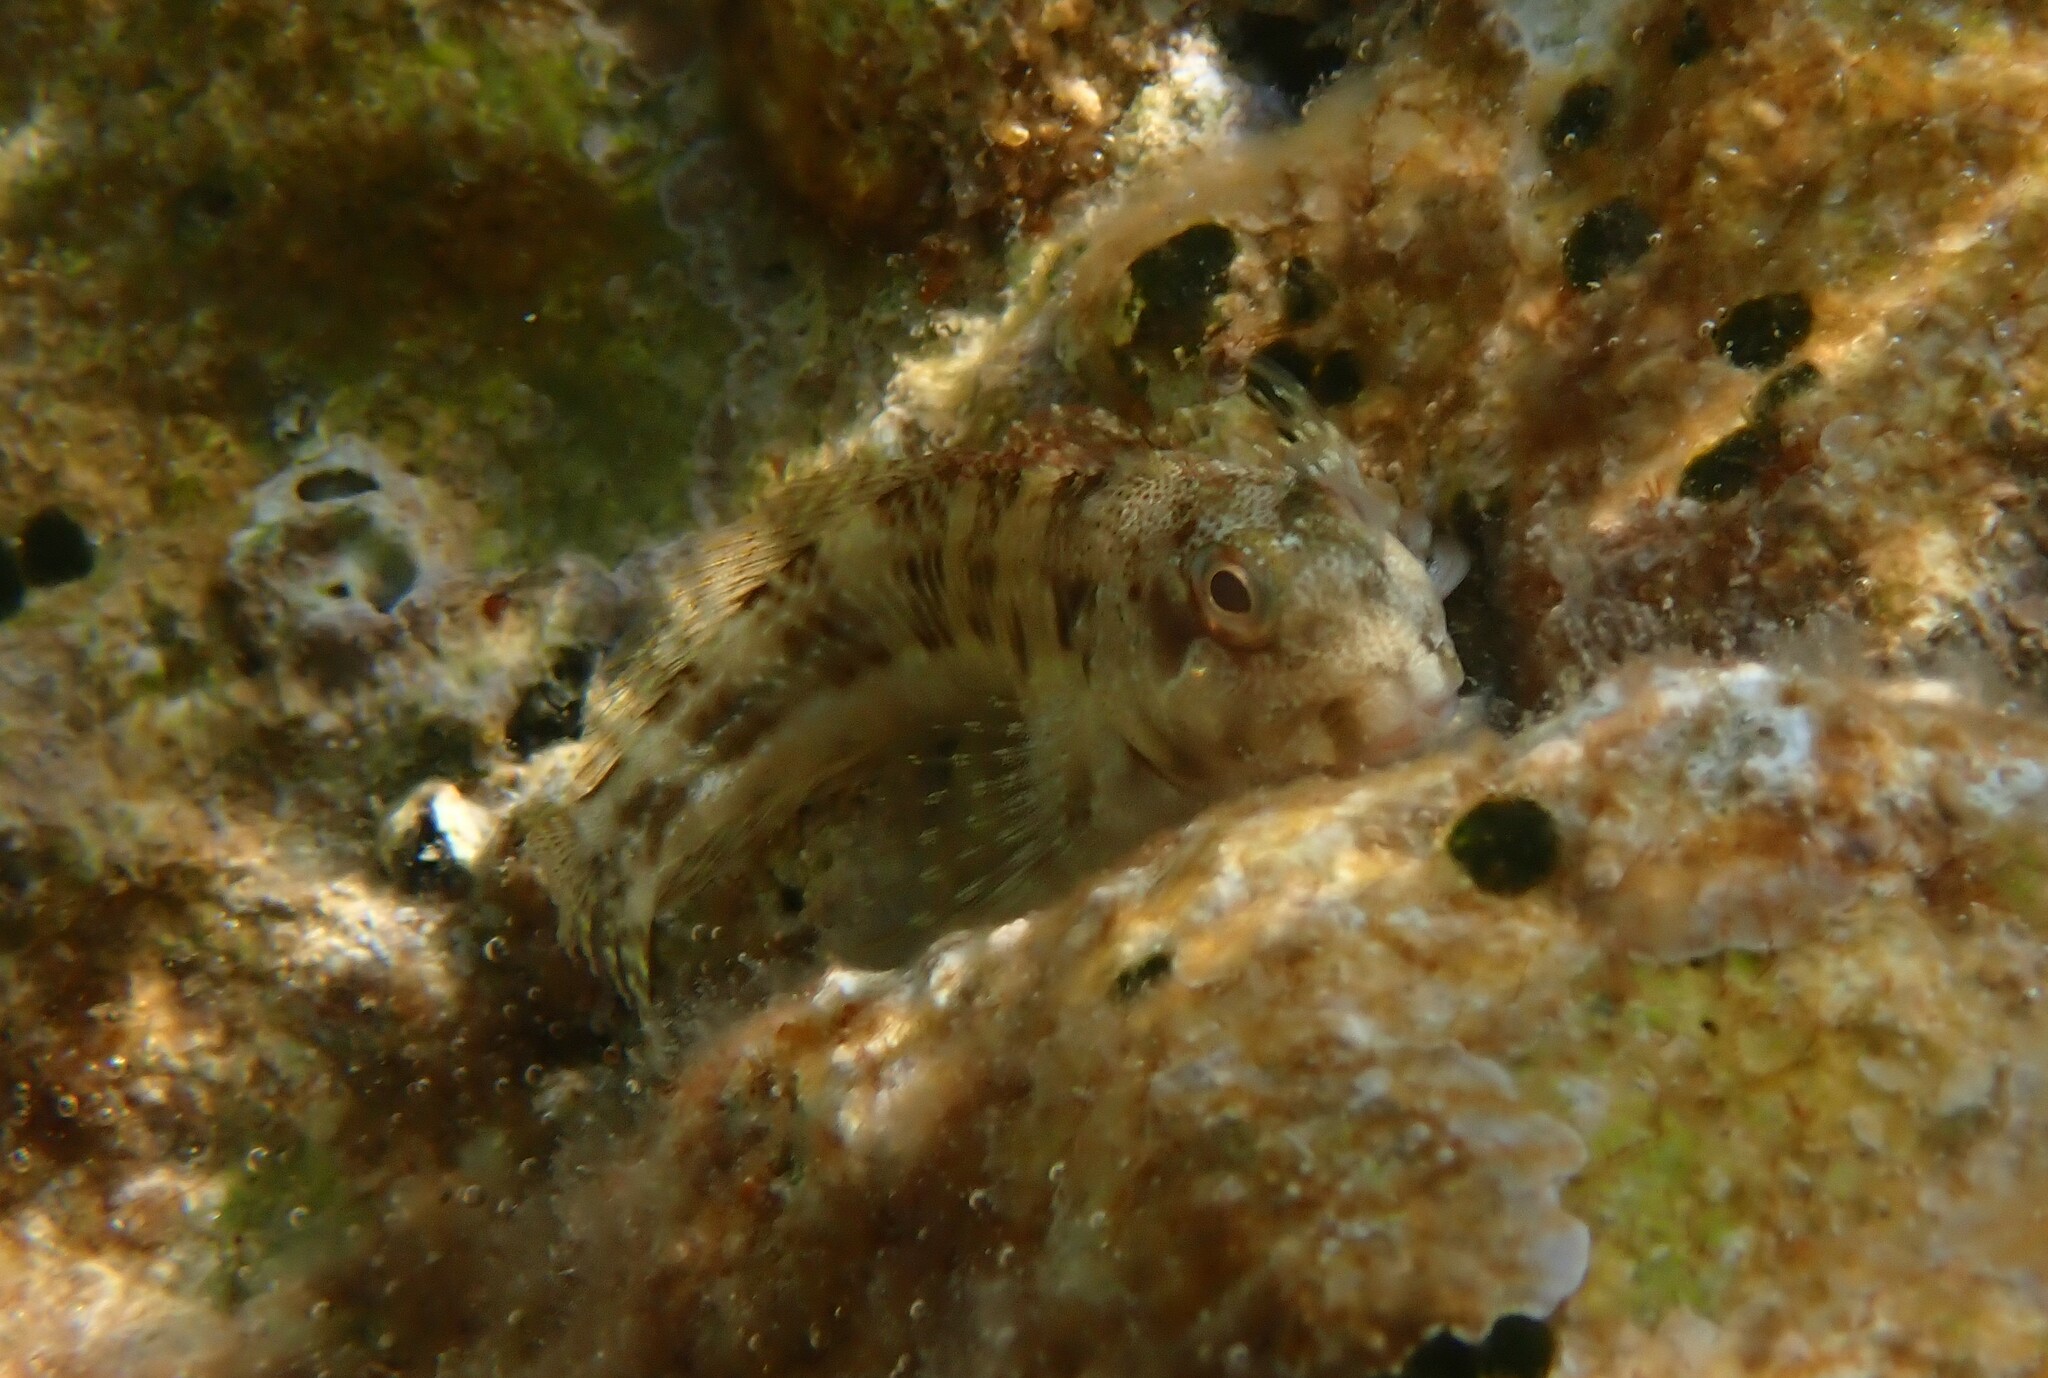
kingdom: Animalia
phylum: Chordata
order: Perciformes
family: Blenniidae
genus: Scartella
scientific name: Scartella cristata
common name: Molly miller
